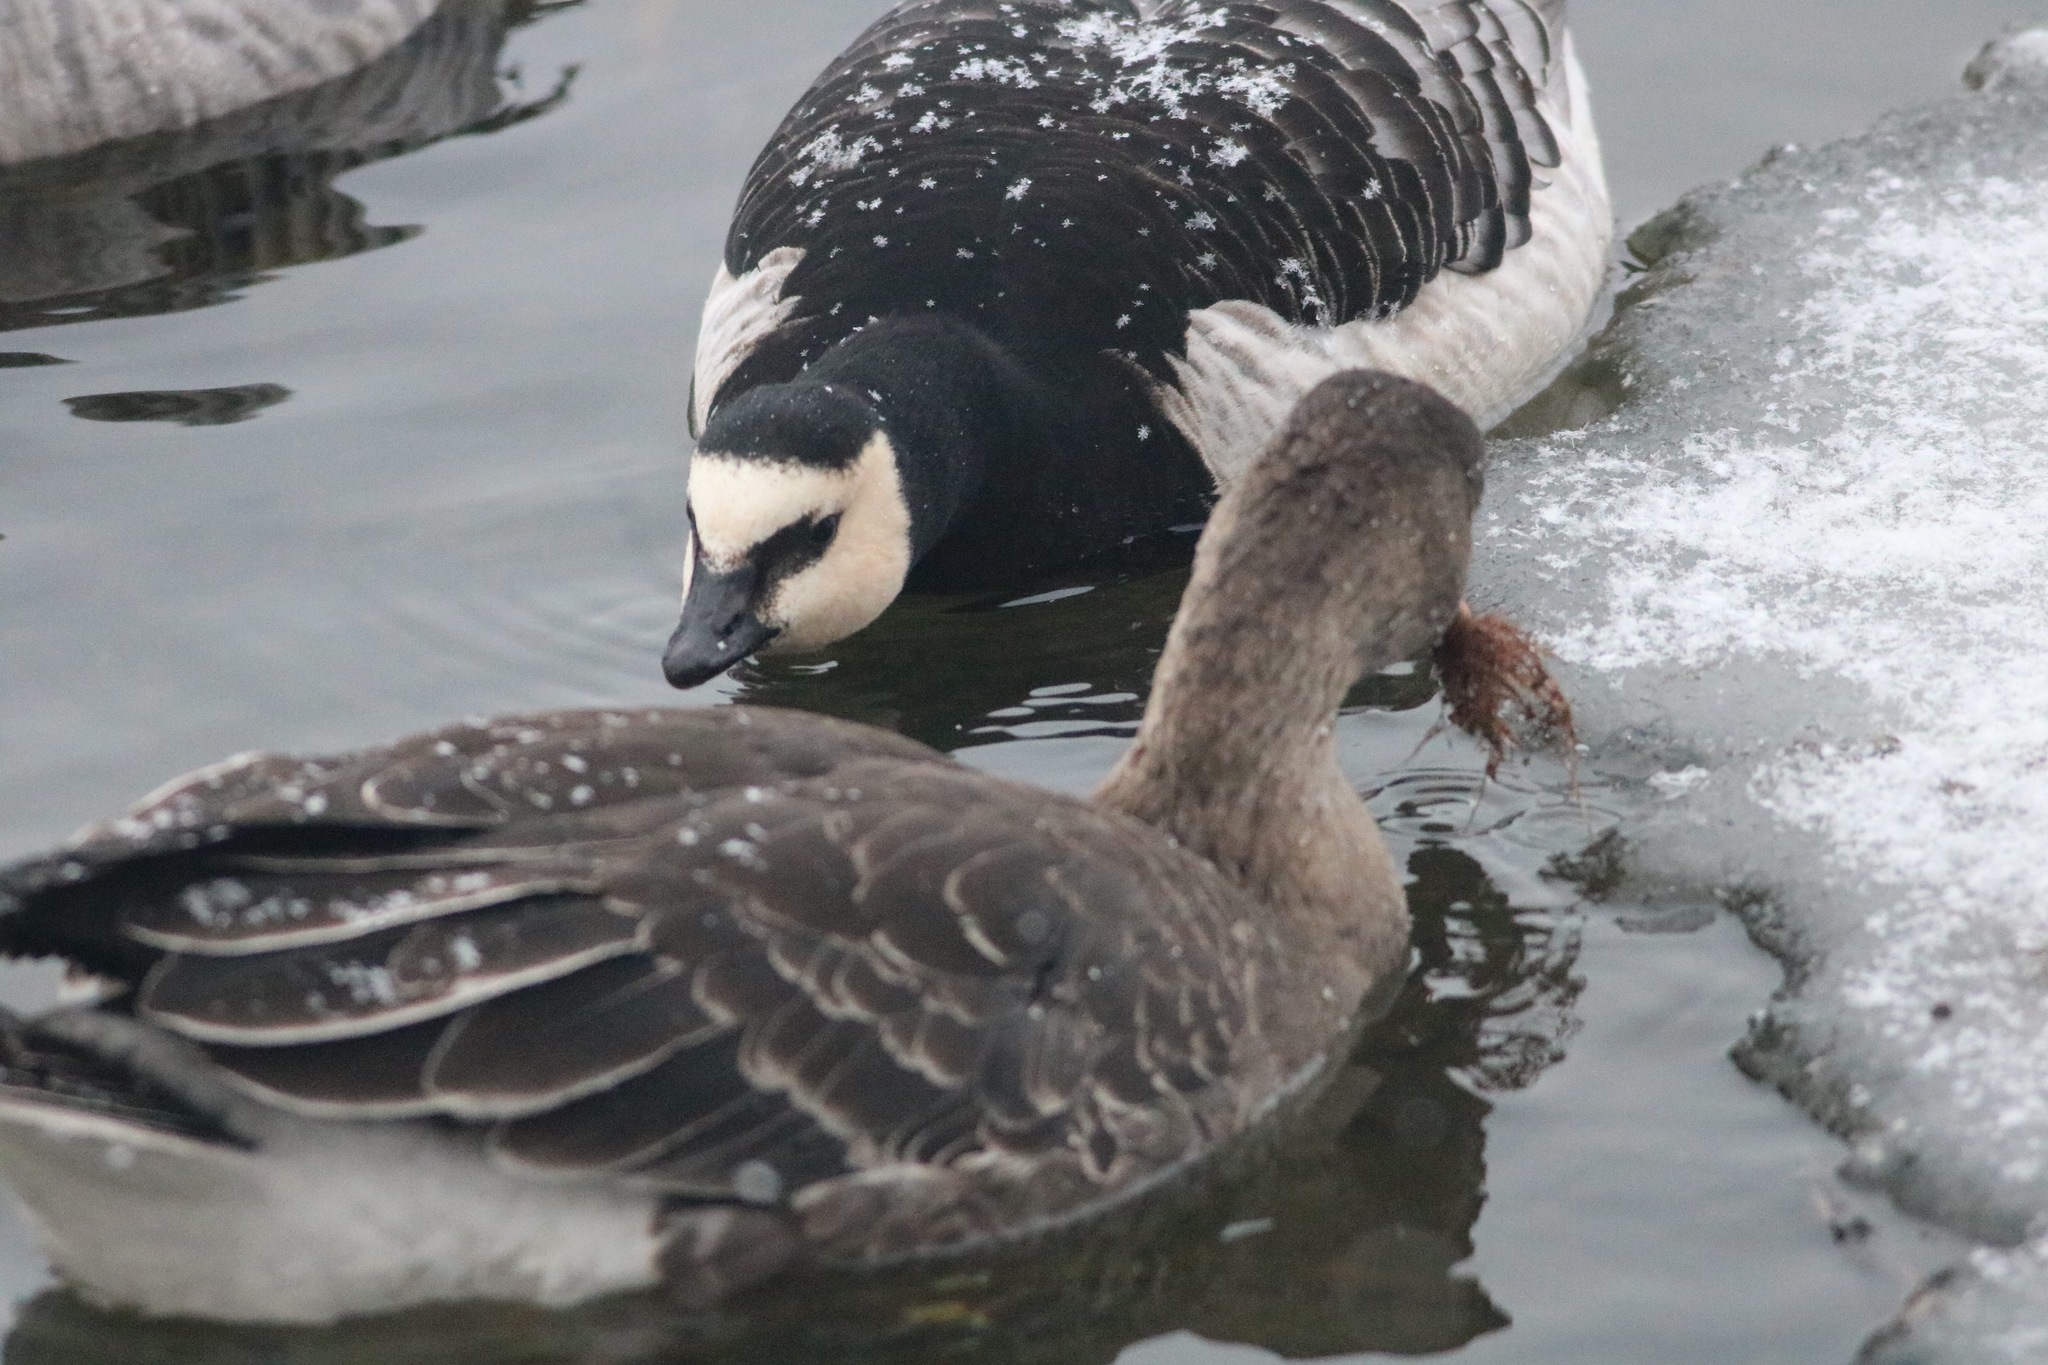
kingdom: Animalia
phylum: Chordata
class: Aves
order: Anseriformes
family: Anatidae
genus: Branta
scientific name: Branta leucopsis
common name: Barnacle goose
